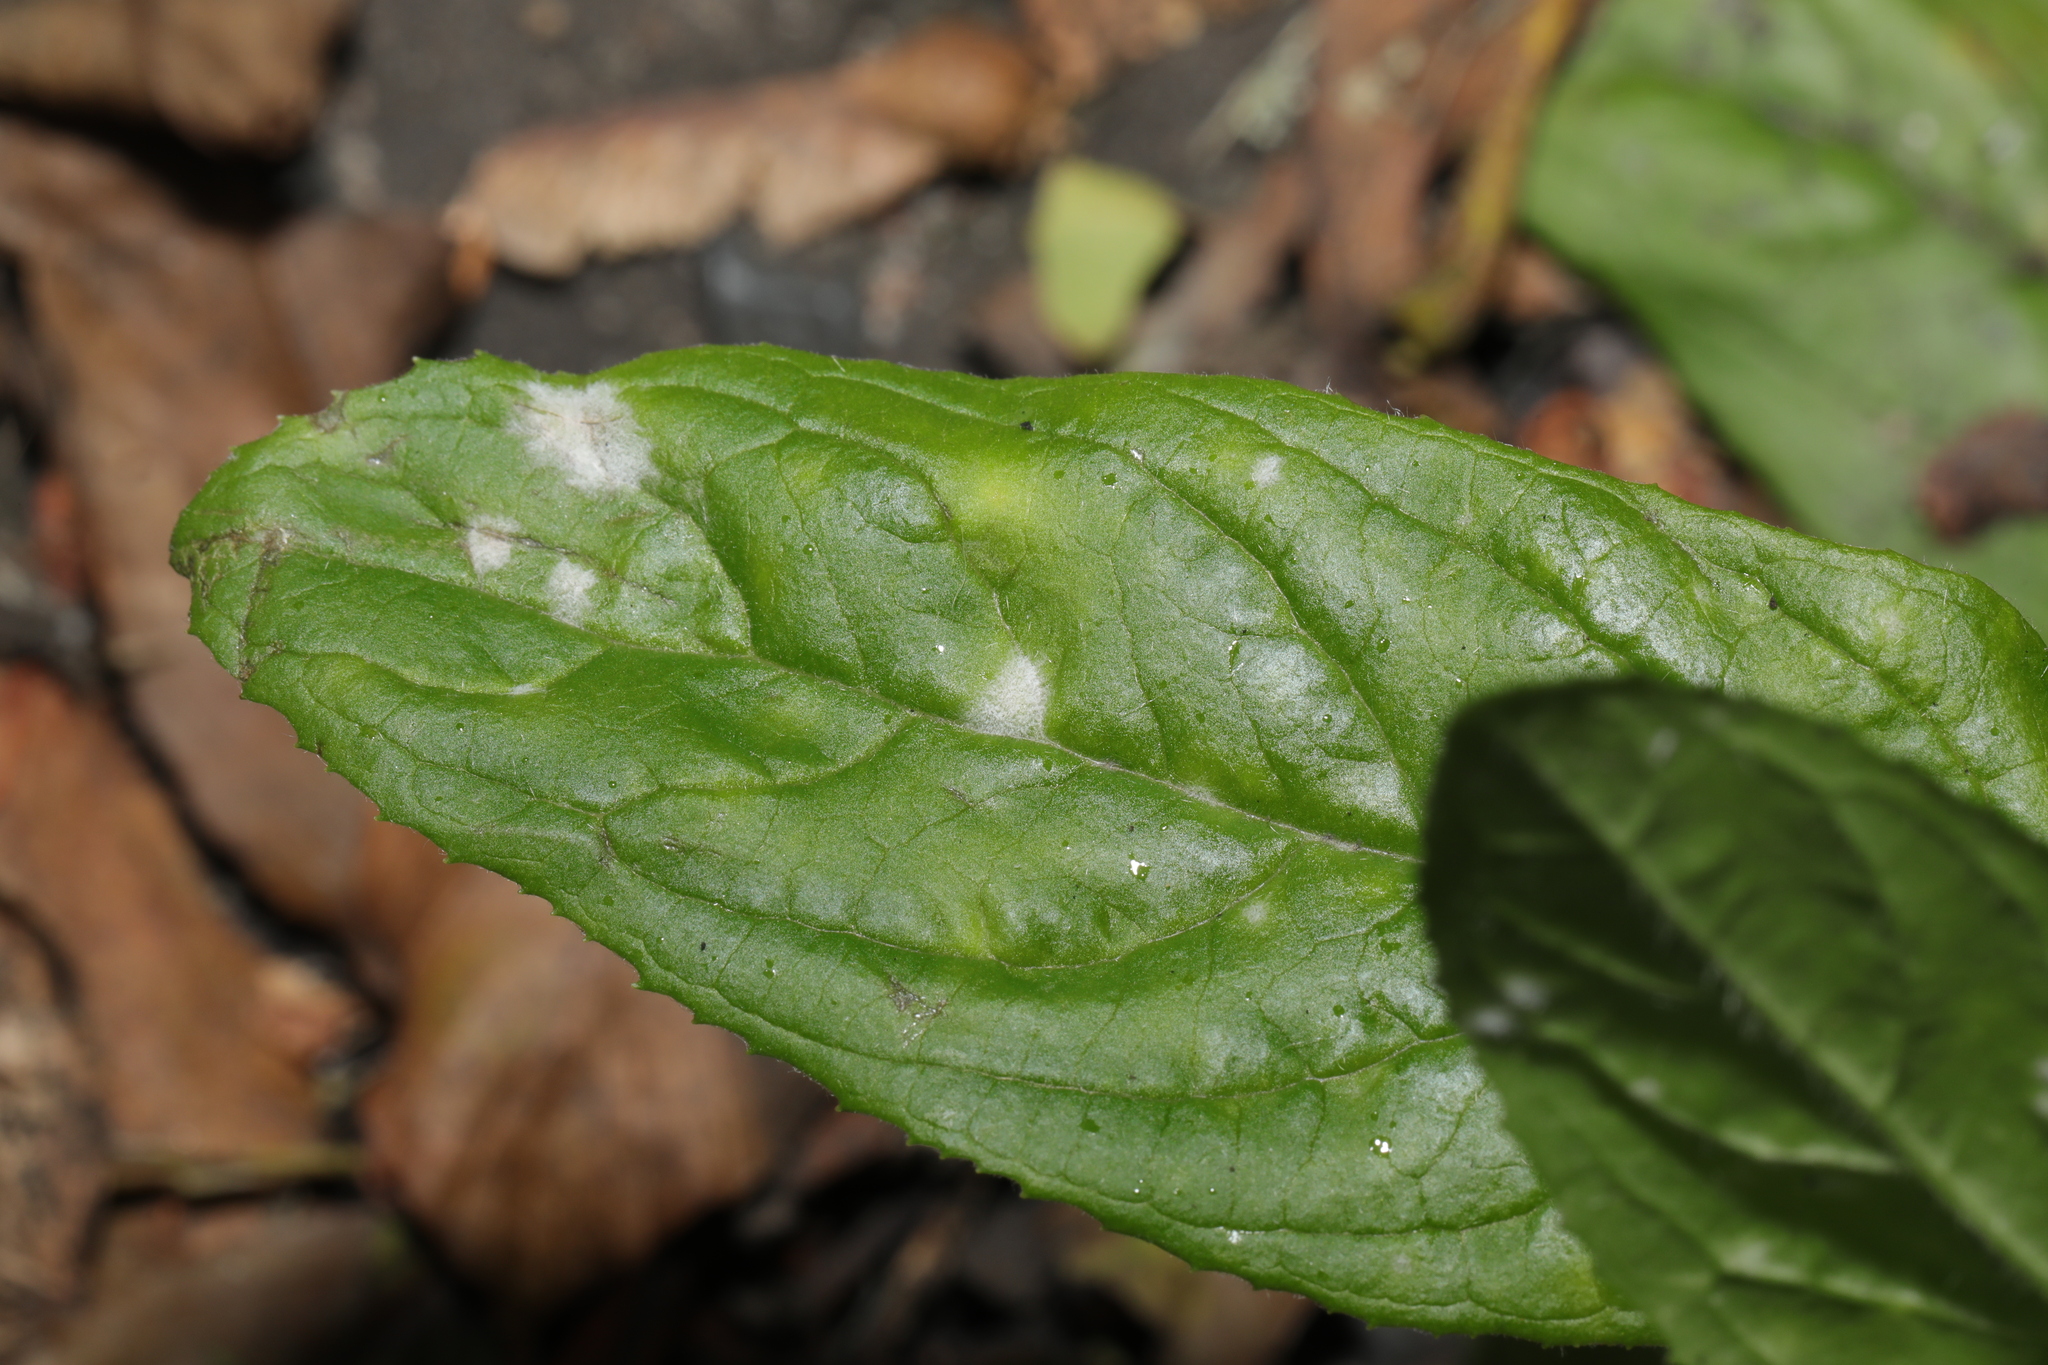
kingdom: Fungi
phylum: Ascomycota
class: Leotiomycetes
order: Helotiales
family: Erysiphaceae
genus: Podosphaera
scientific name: Podosphaera epilobii
